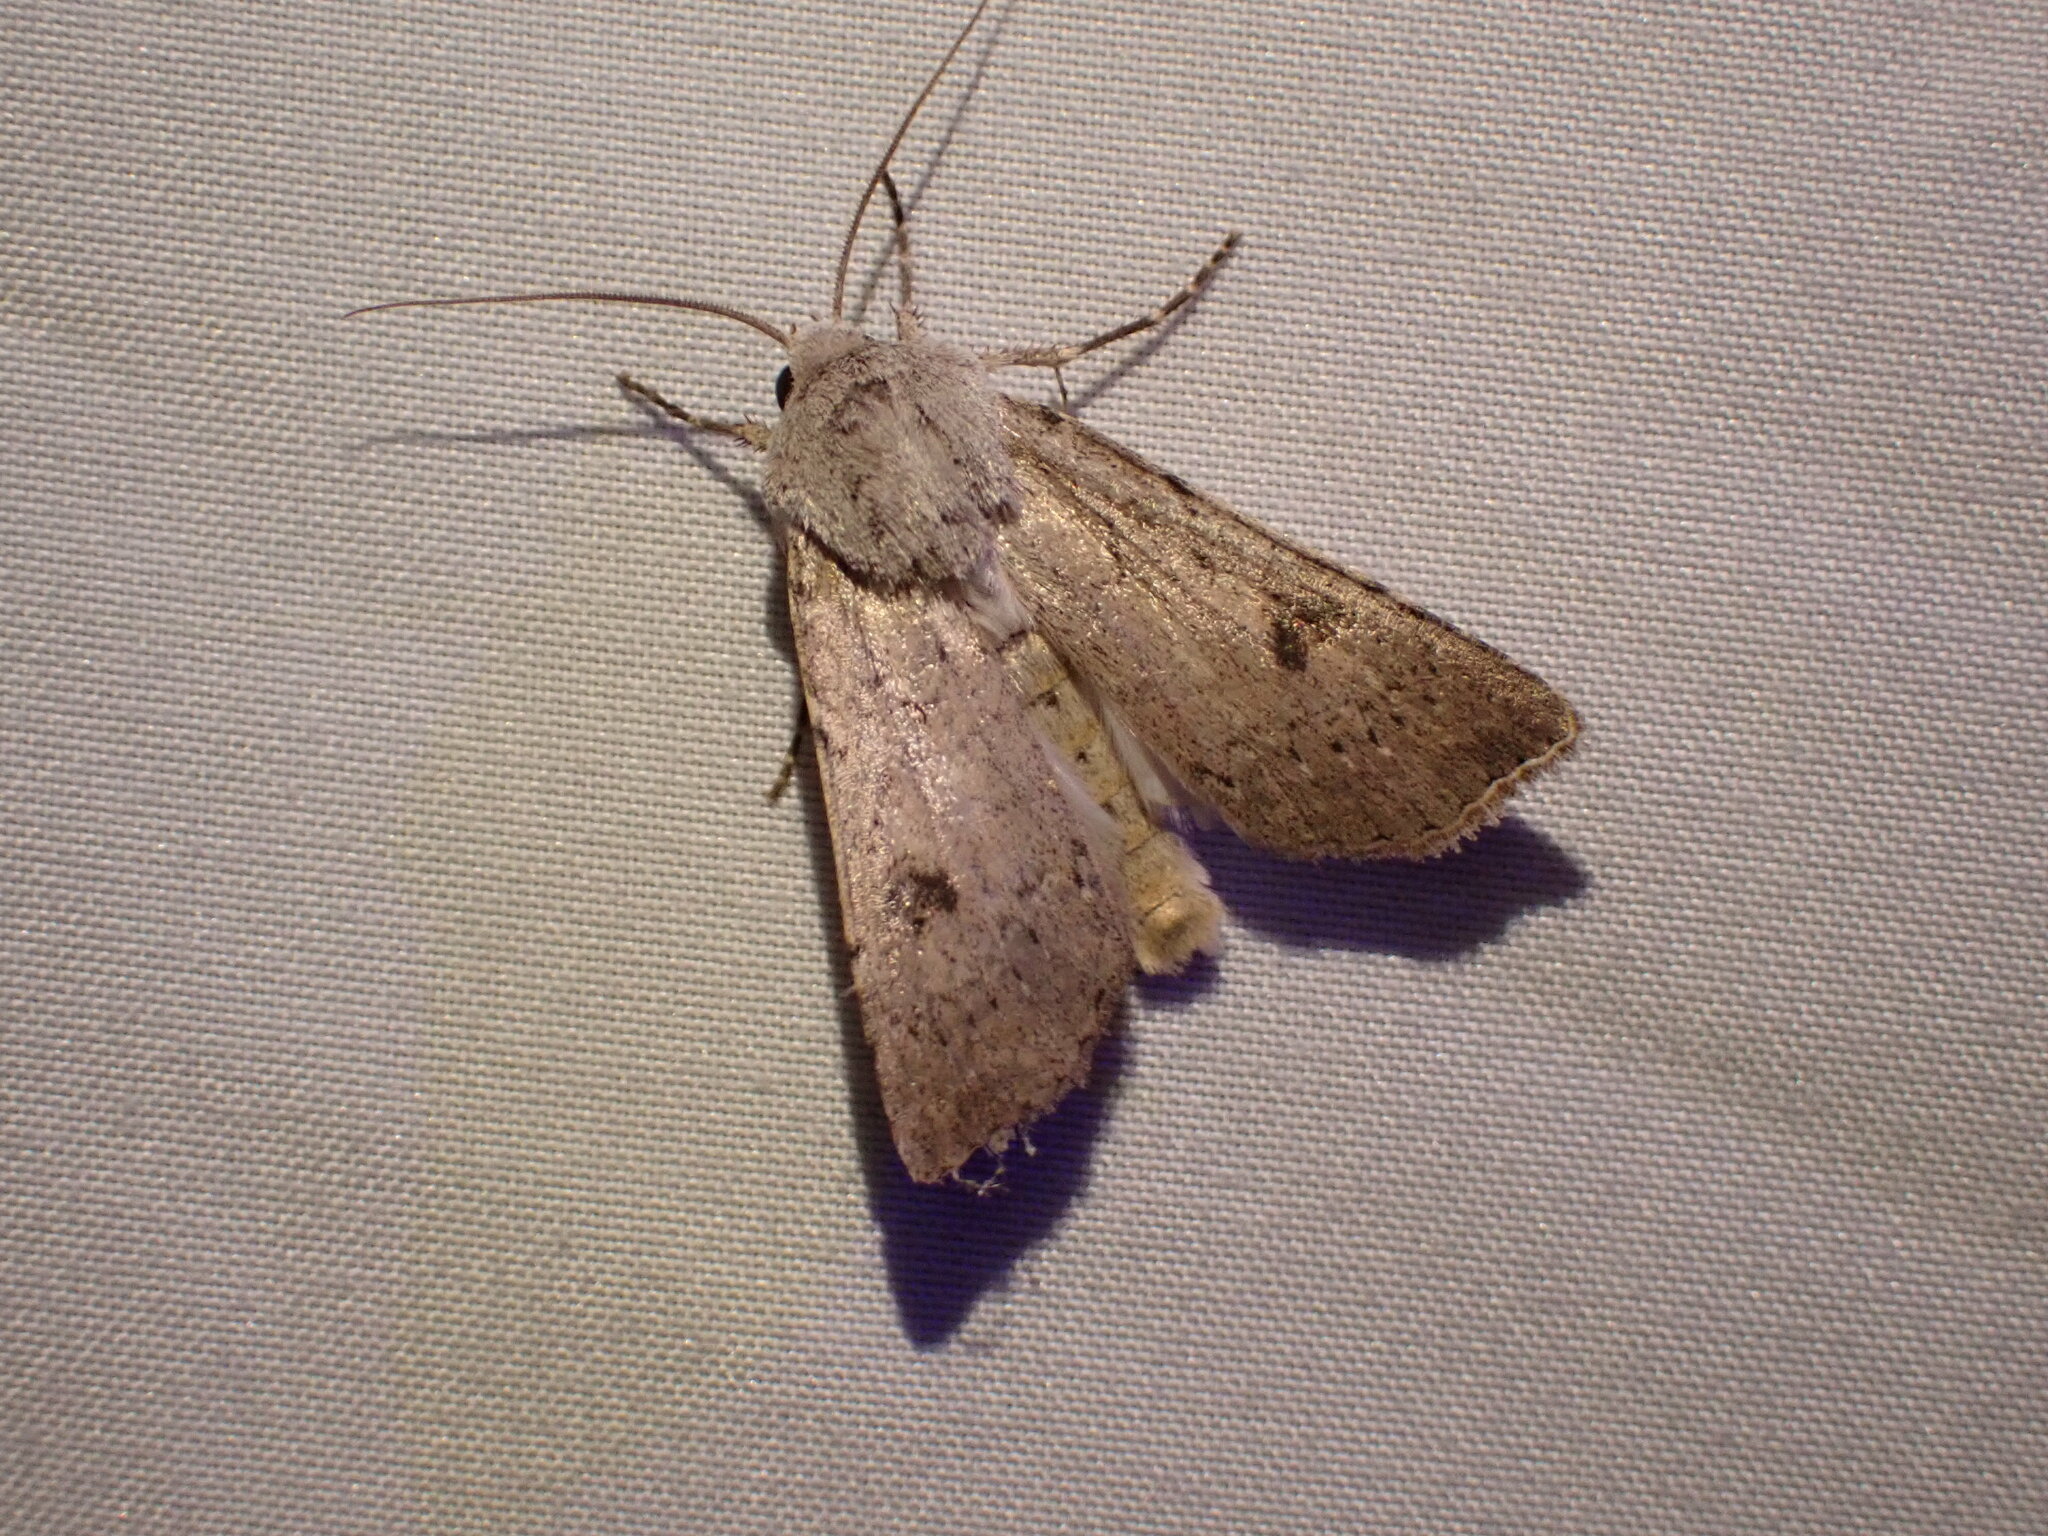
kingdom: Animalia
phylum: Arthropoda
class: Insecta
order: Lepidoptera
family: Noctuidae
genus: Agrotis
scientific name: Agrotis vetusta
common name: Old man dart
